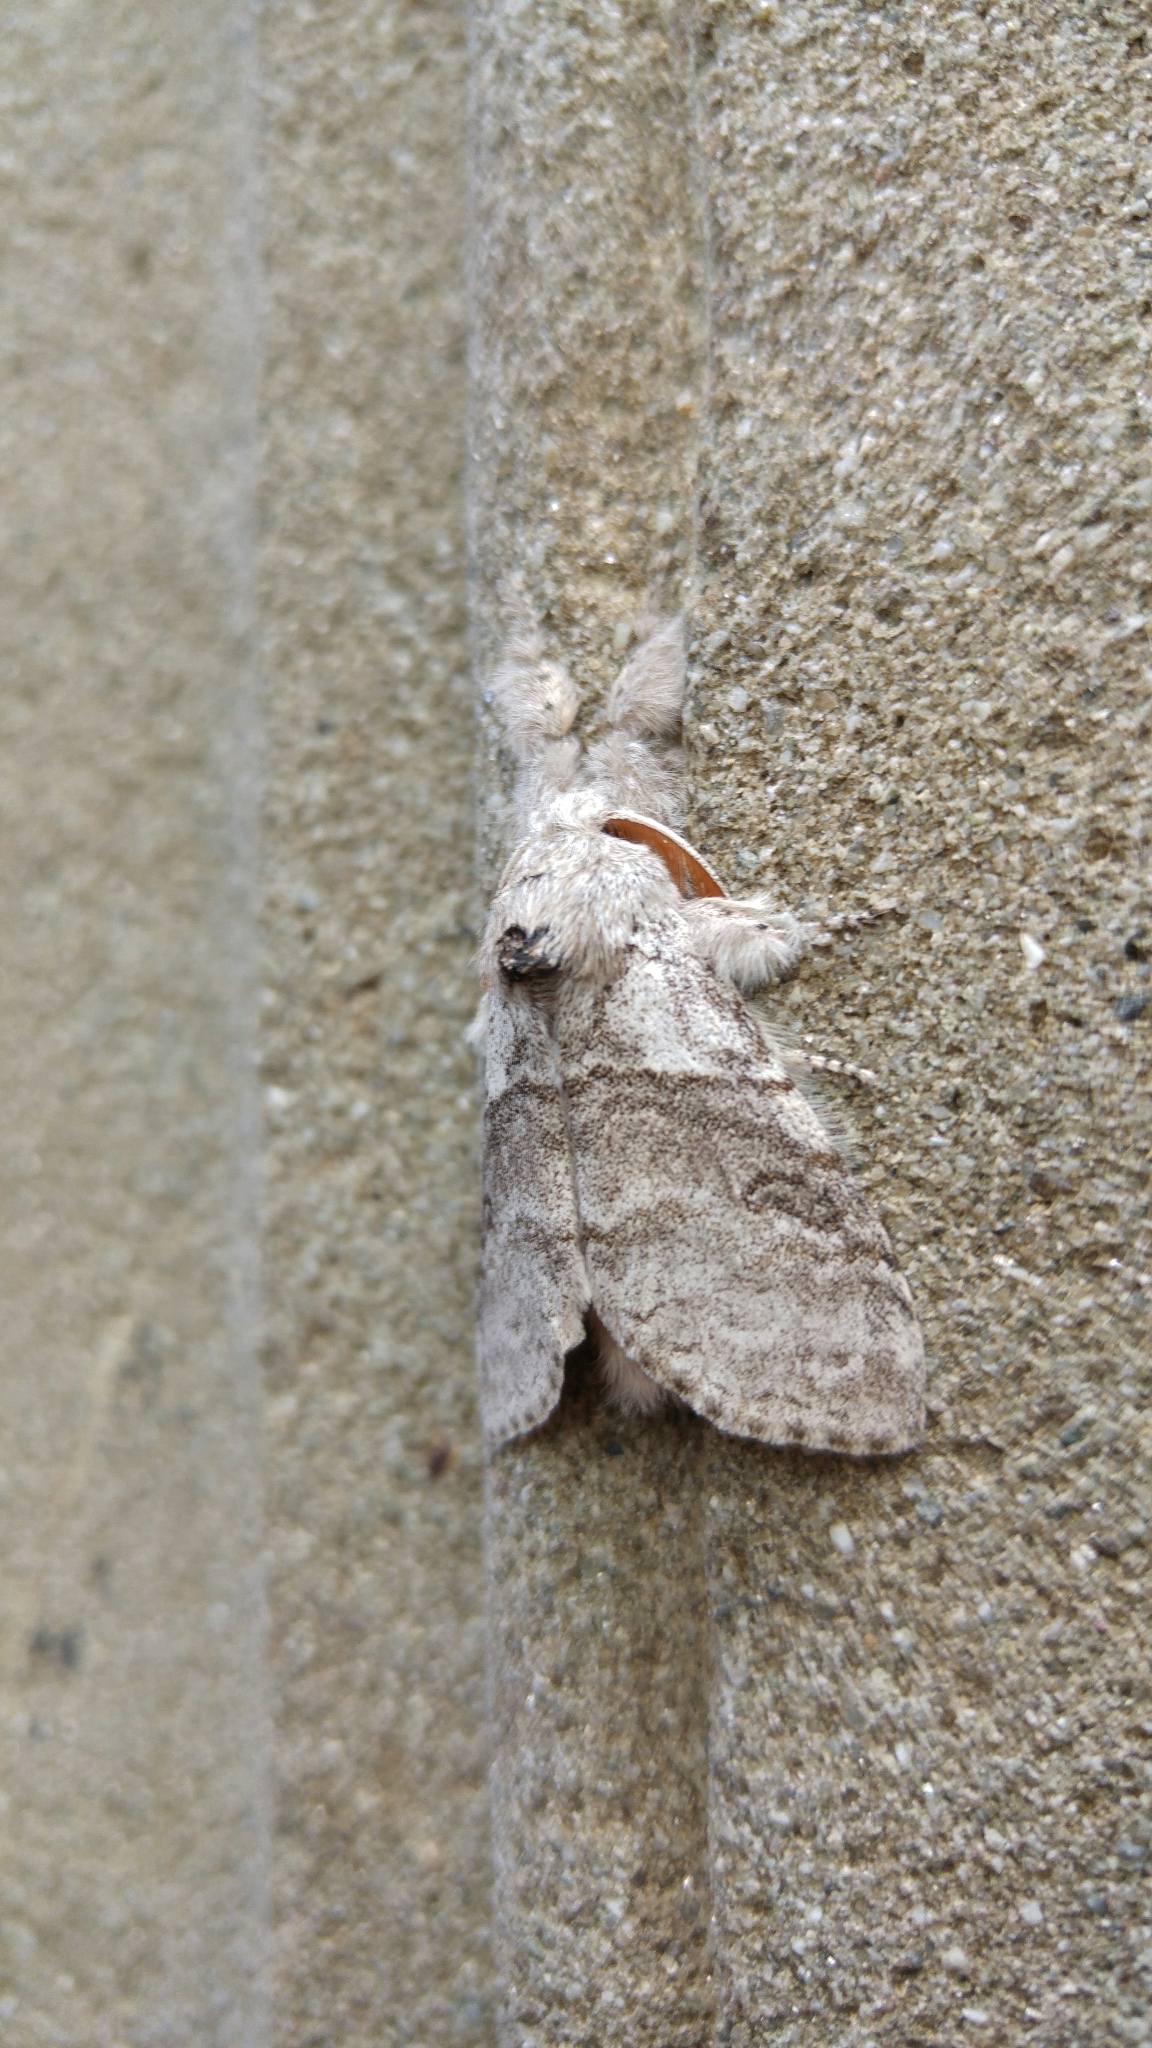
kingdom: Animalia
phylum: Arthropoda
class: Insecta
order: Lepidoptera
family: Erebidae
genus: Calliteara
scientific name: Calliteara pudibunda
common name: Pale tussock
